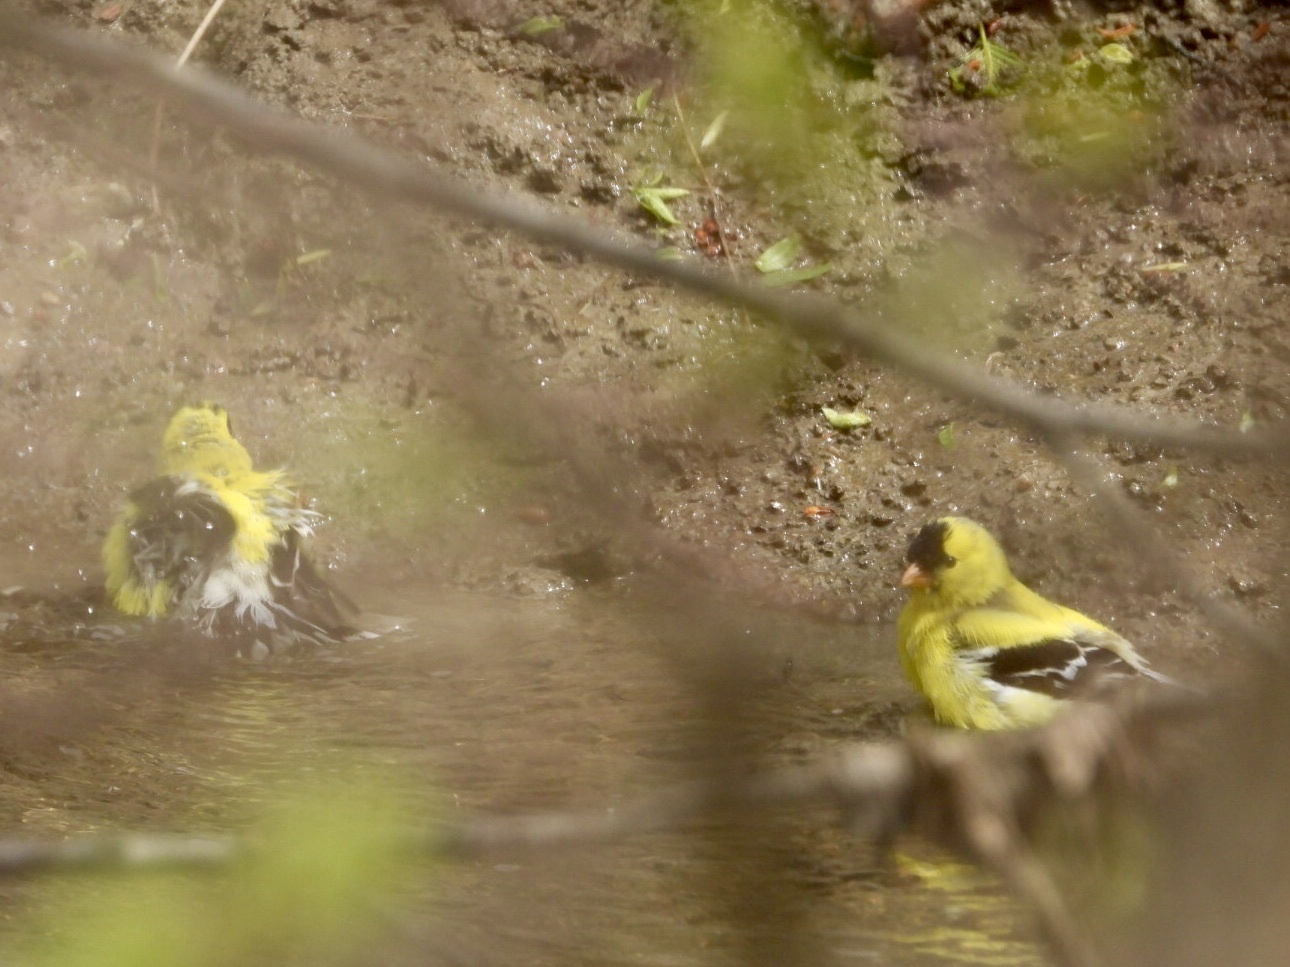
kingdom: Animalia
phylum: Chordata
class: Aves
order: Passeriformes
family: Fringillidae
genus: Spinus
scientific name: Spinus tristis
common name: American goldfinch
